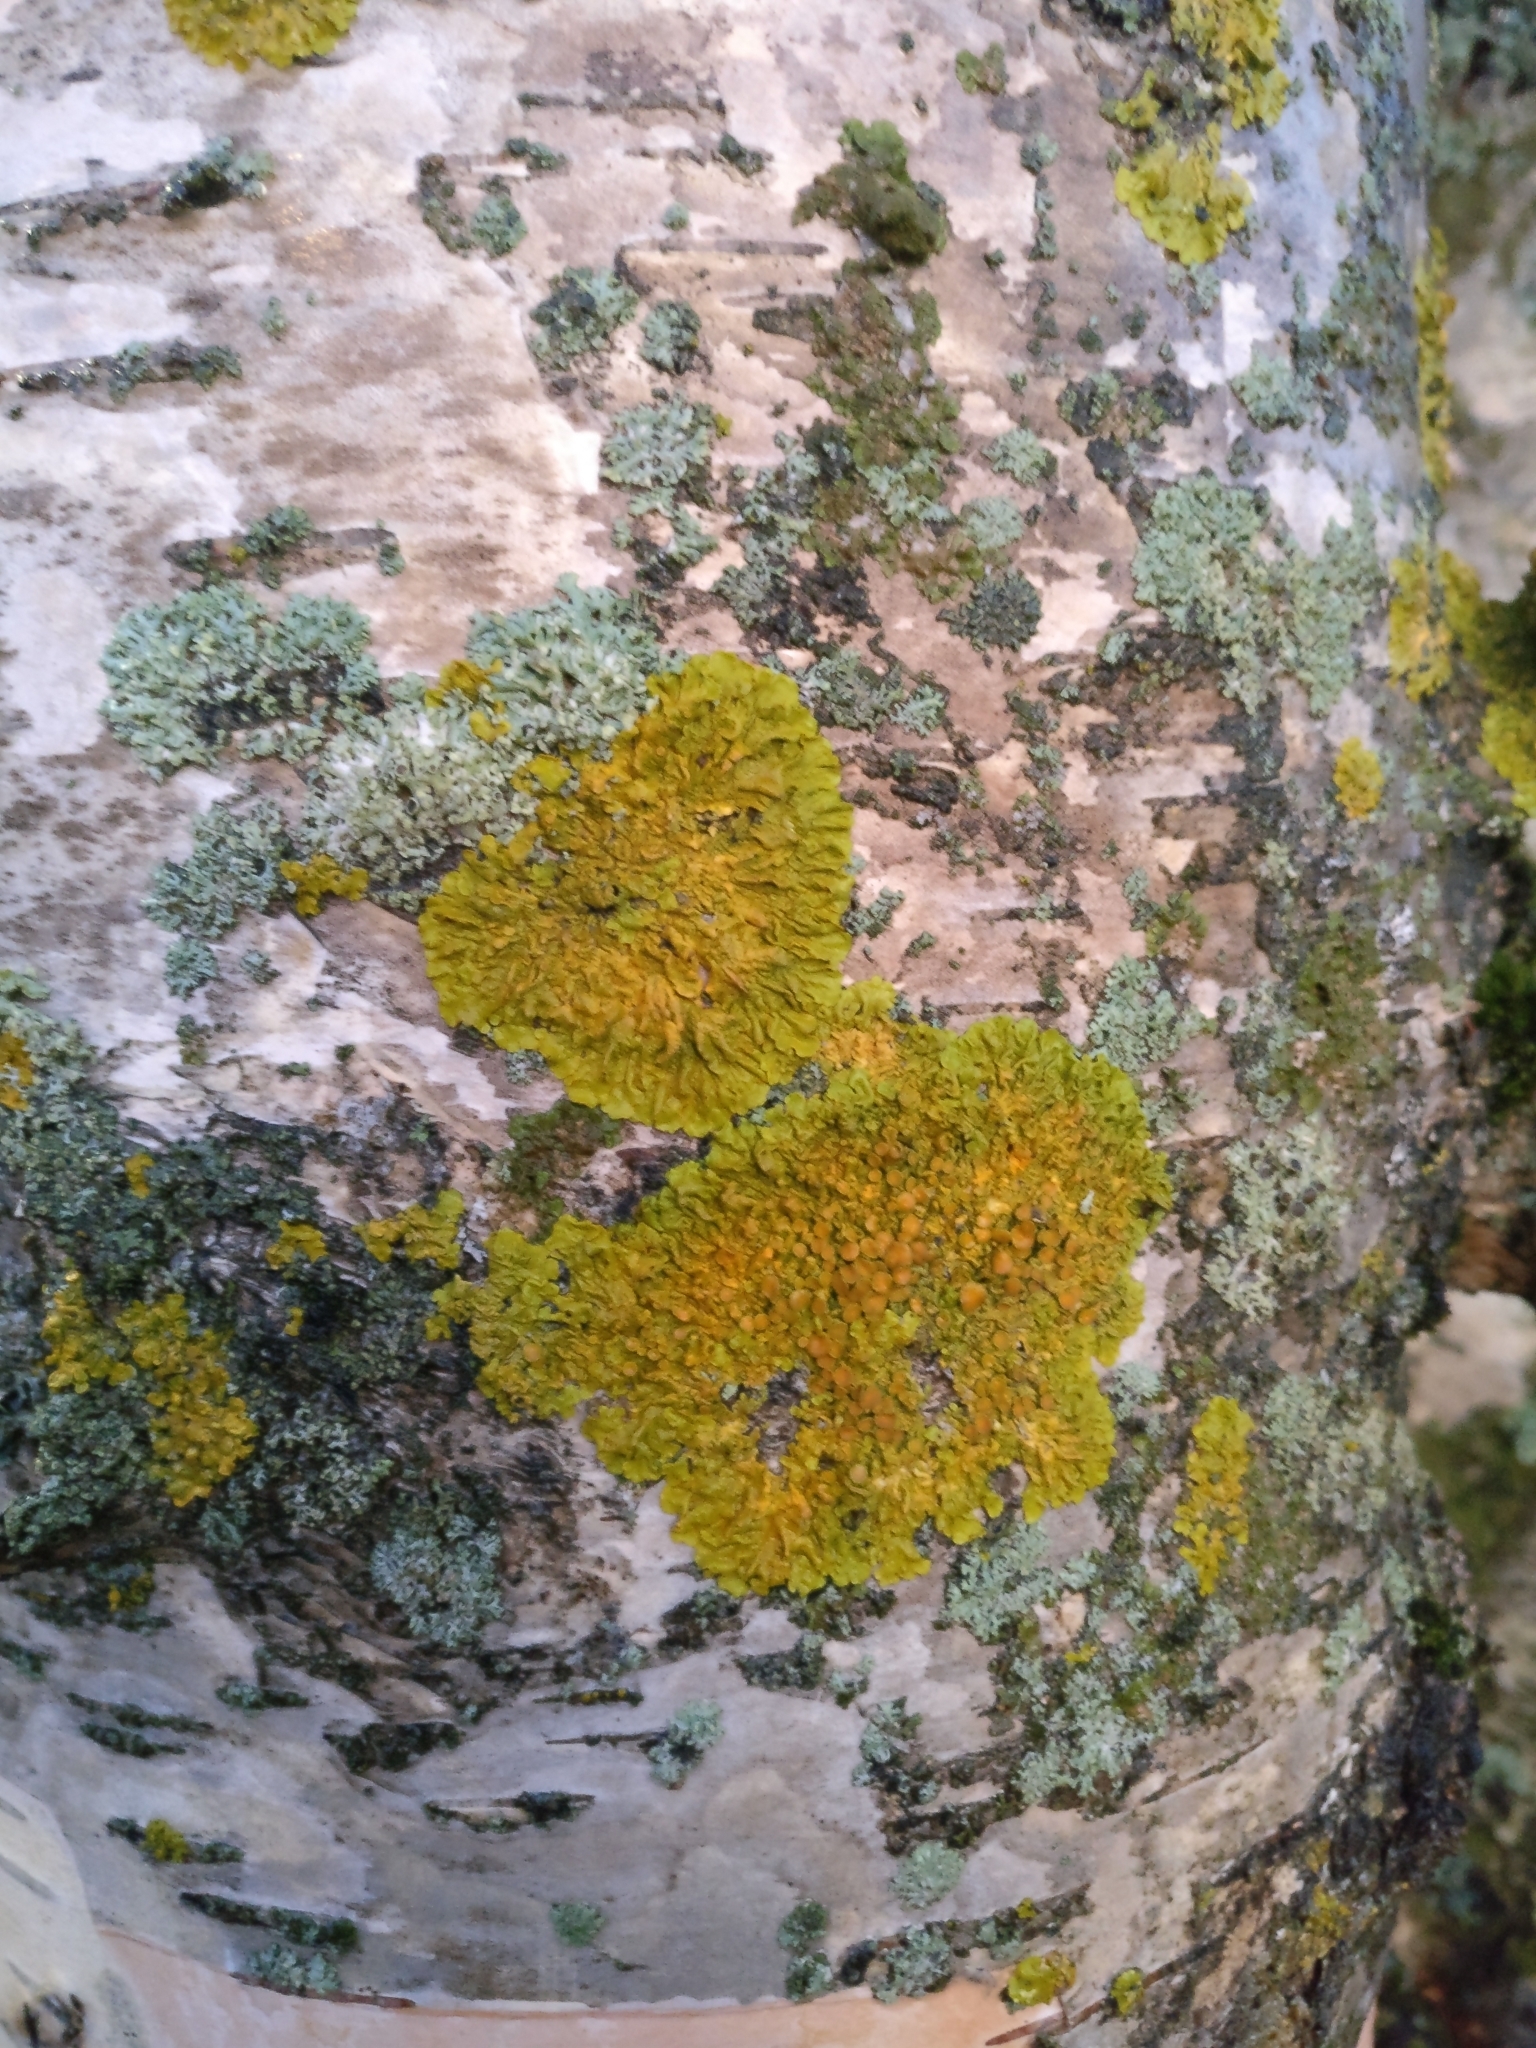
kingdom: Fungi
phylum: Ascomycota
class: Lecanoromycetes
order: Teloschistales
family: Teloschistaceae
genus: Xanthoria
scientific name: Xanthoria parietina
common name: Common orange lichen
